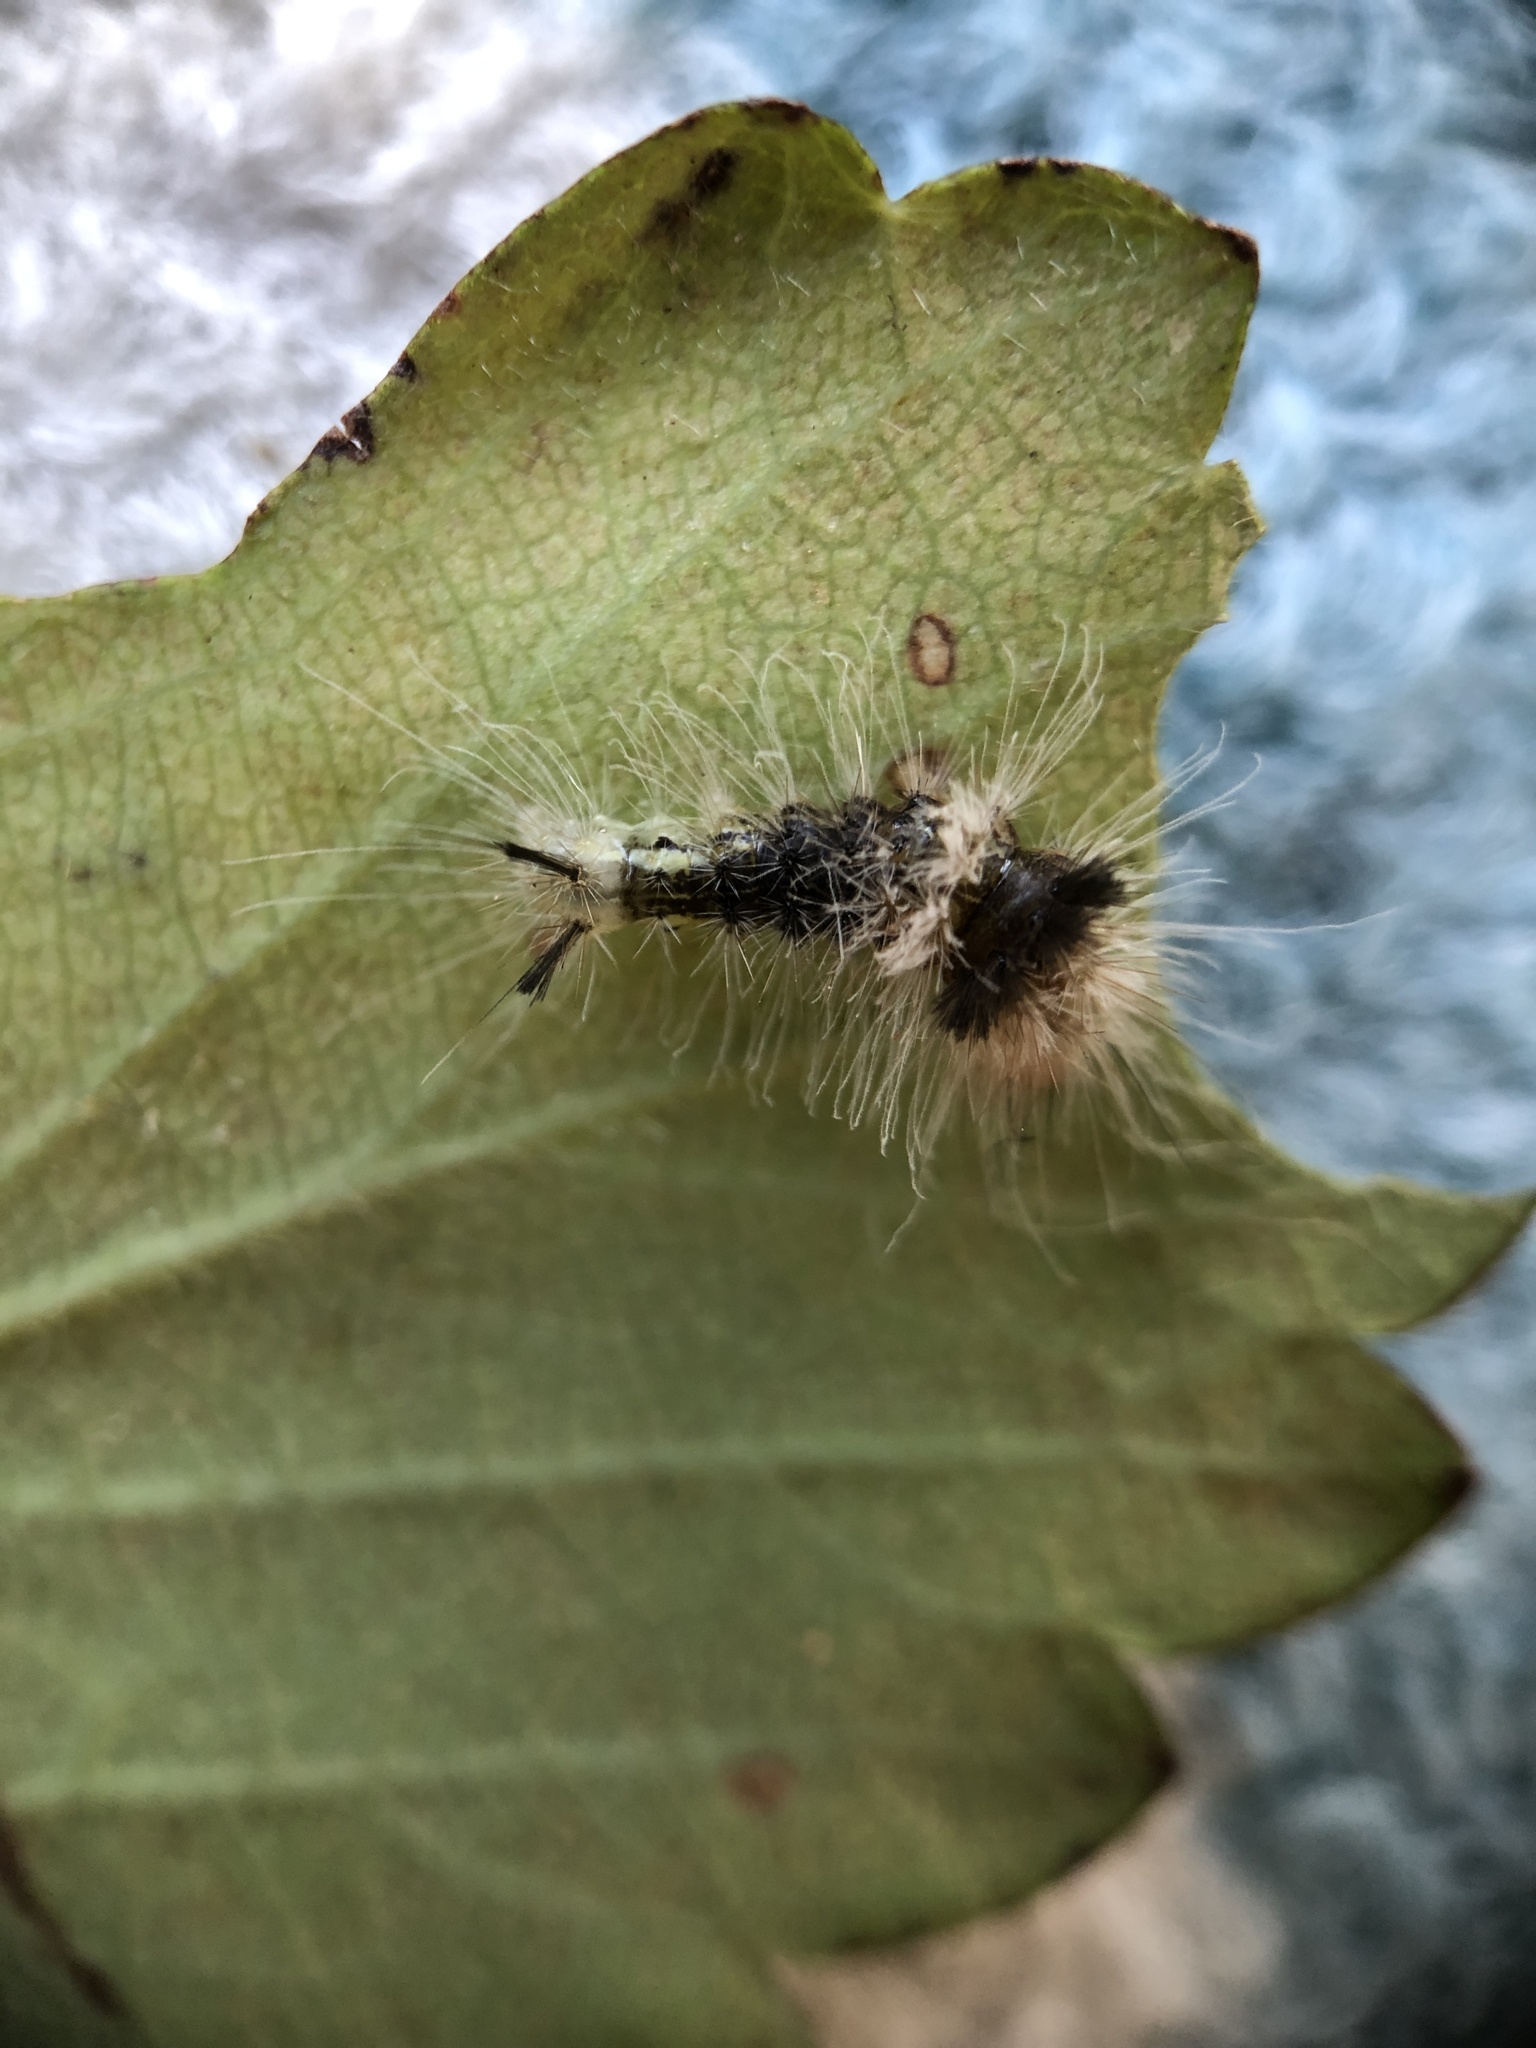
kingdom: Animalia
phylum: Arthropoda
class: Insecta
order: Lepidoptera
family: Noctuidae
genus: Acronicta
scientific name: Acronicta impleta
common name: Powdered dagger
